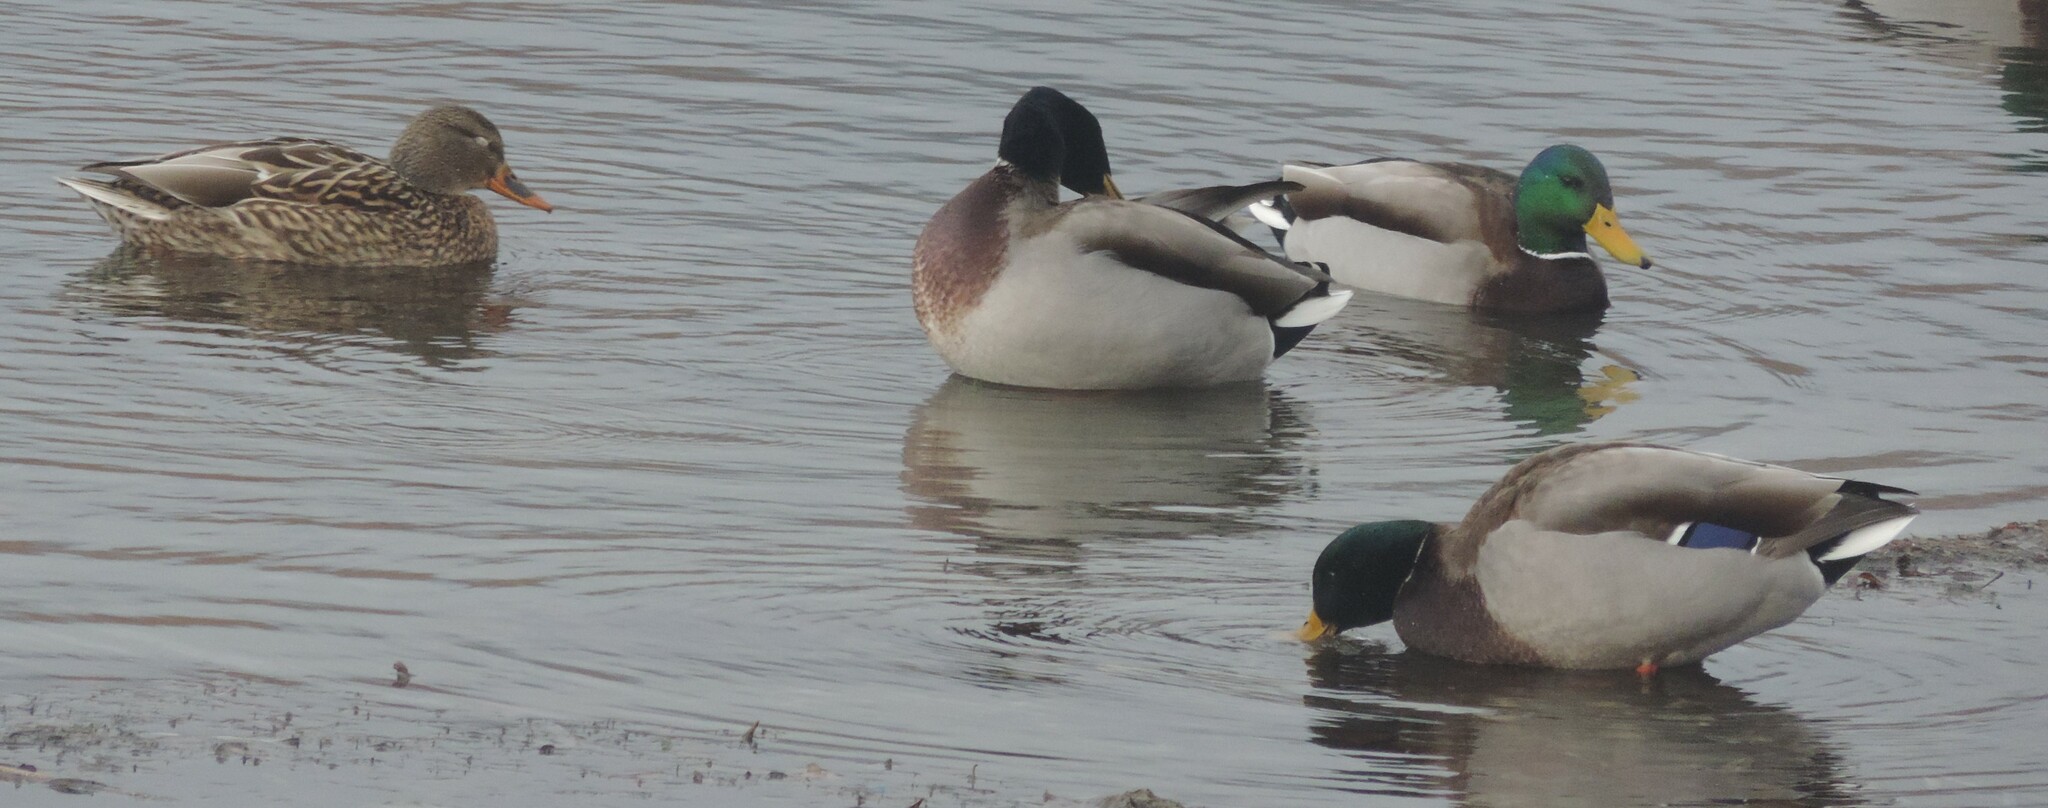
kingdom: Animalia
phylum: Chordata
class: Aves
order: Anseriformes
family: Anatidae
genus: Anas
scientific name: Anas platyrhynchos
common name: Mallard
